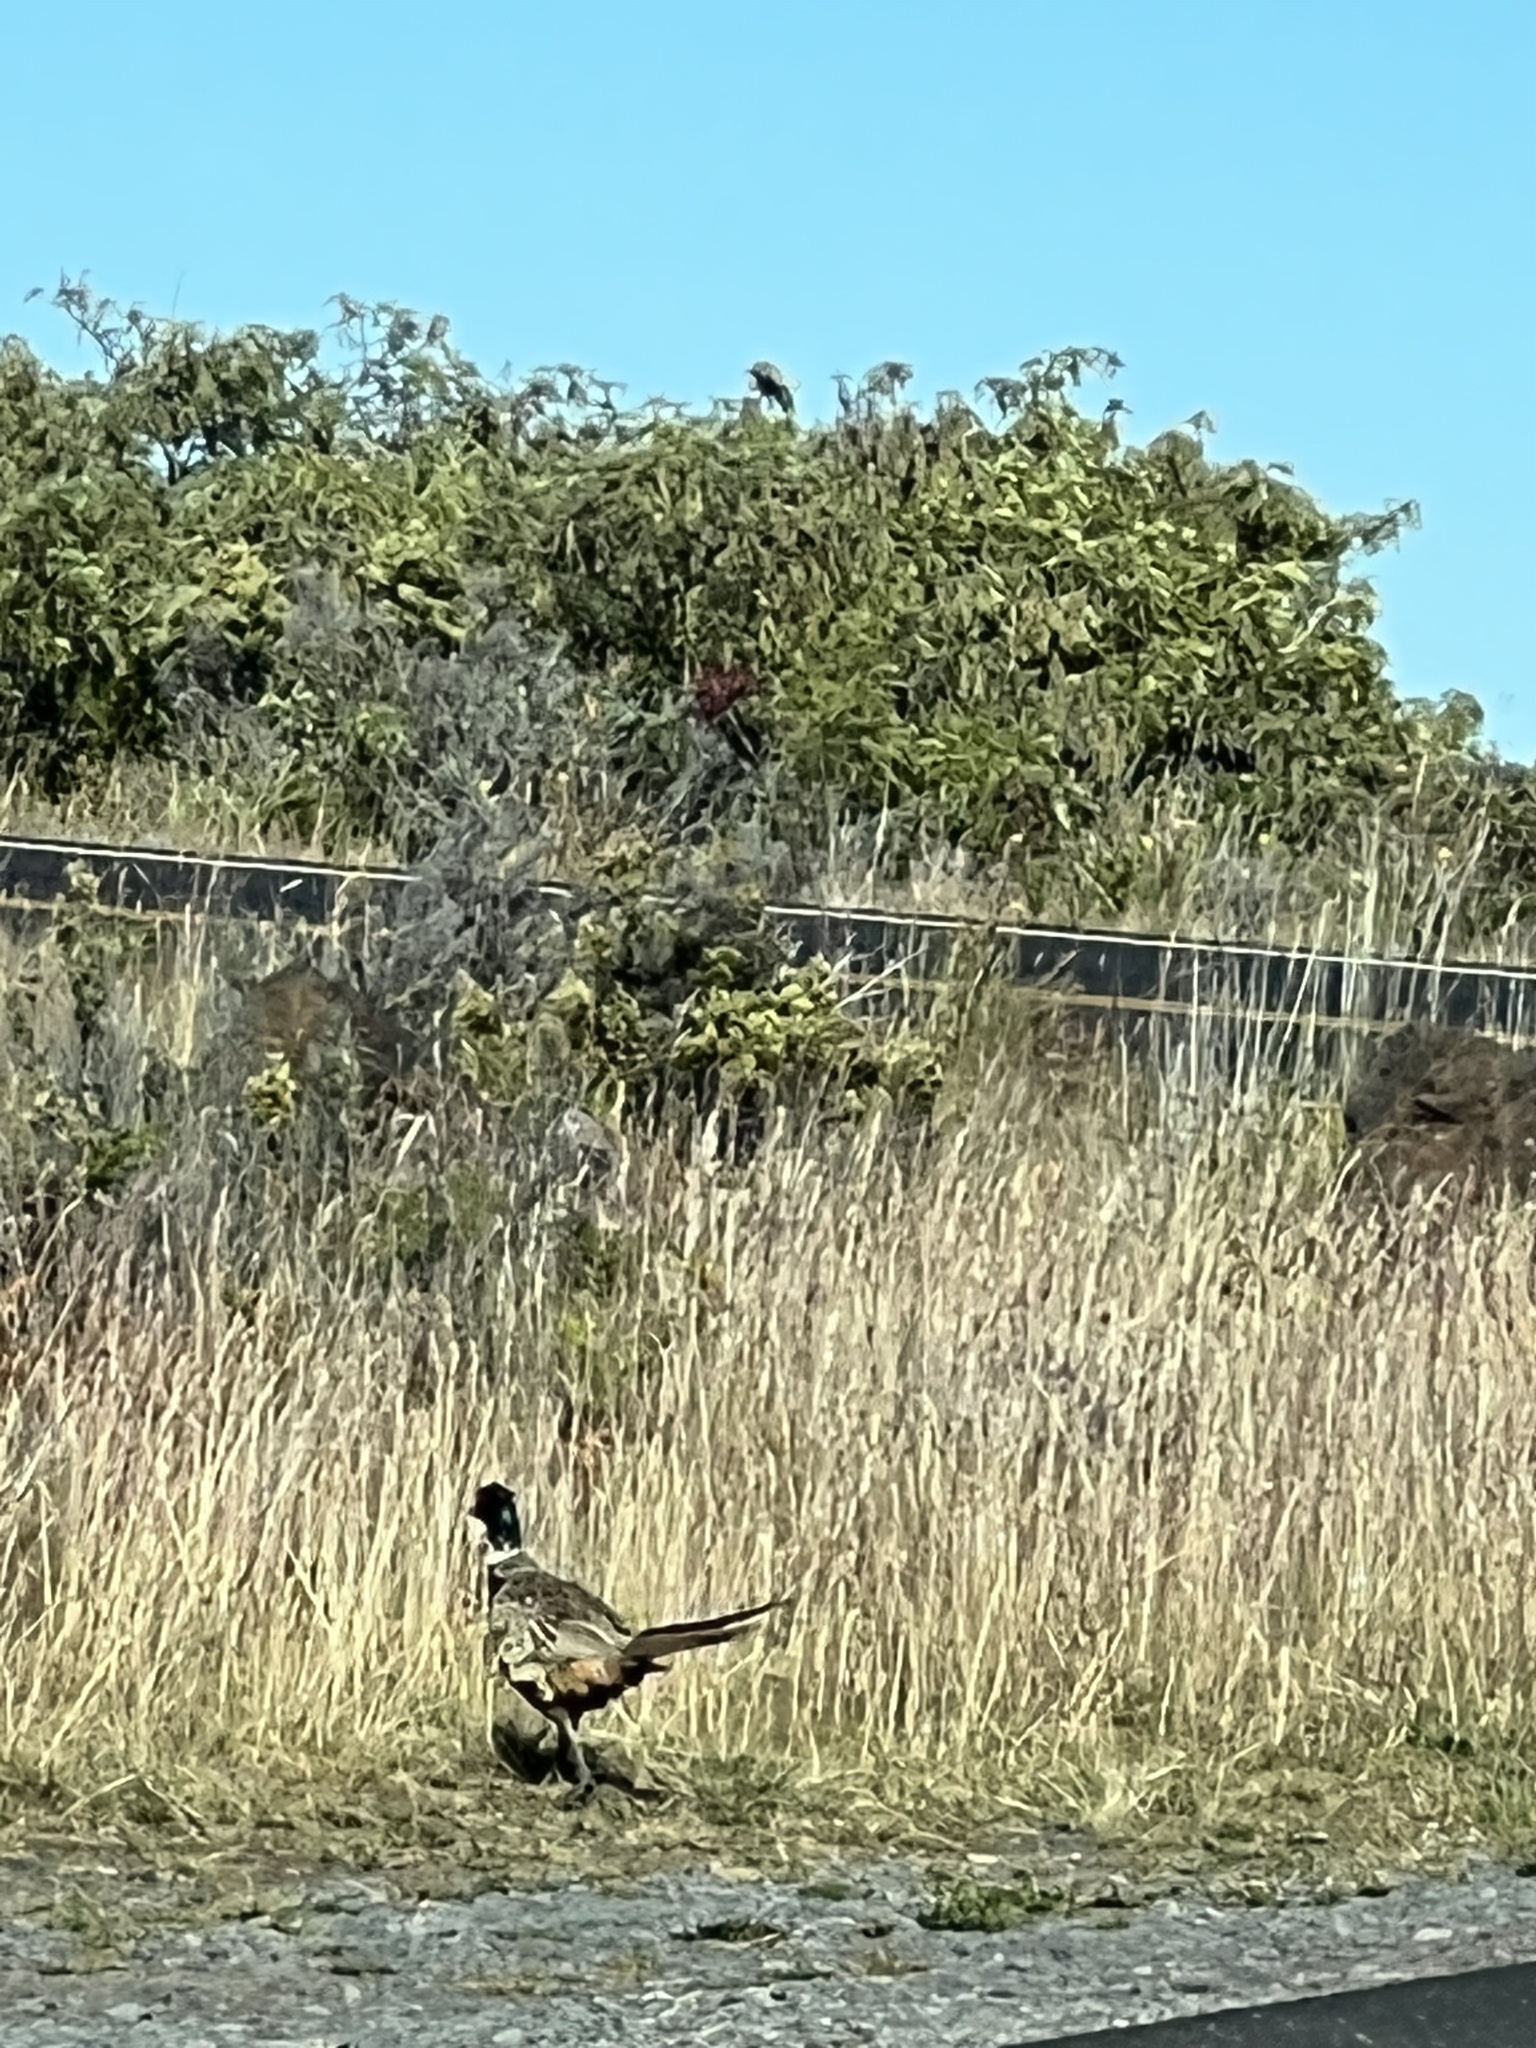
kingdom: Animalia
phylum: Chordata
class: Aves
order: Galliformes
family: Phasianidae
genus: Phasianus
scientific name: Phasianus colchicus
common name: Common pheasant
